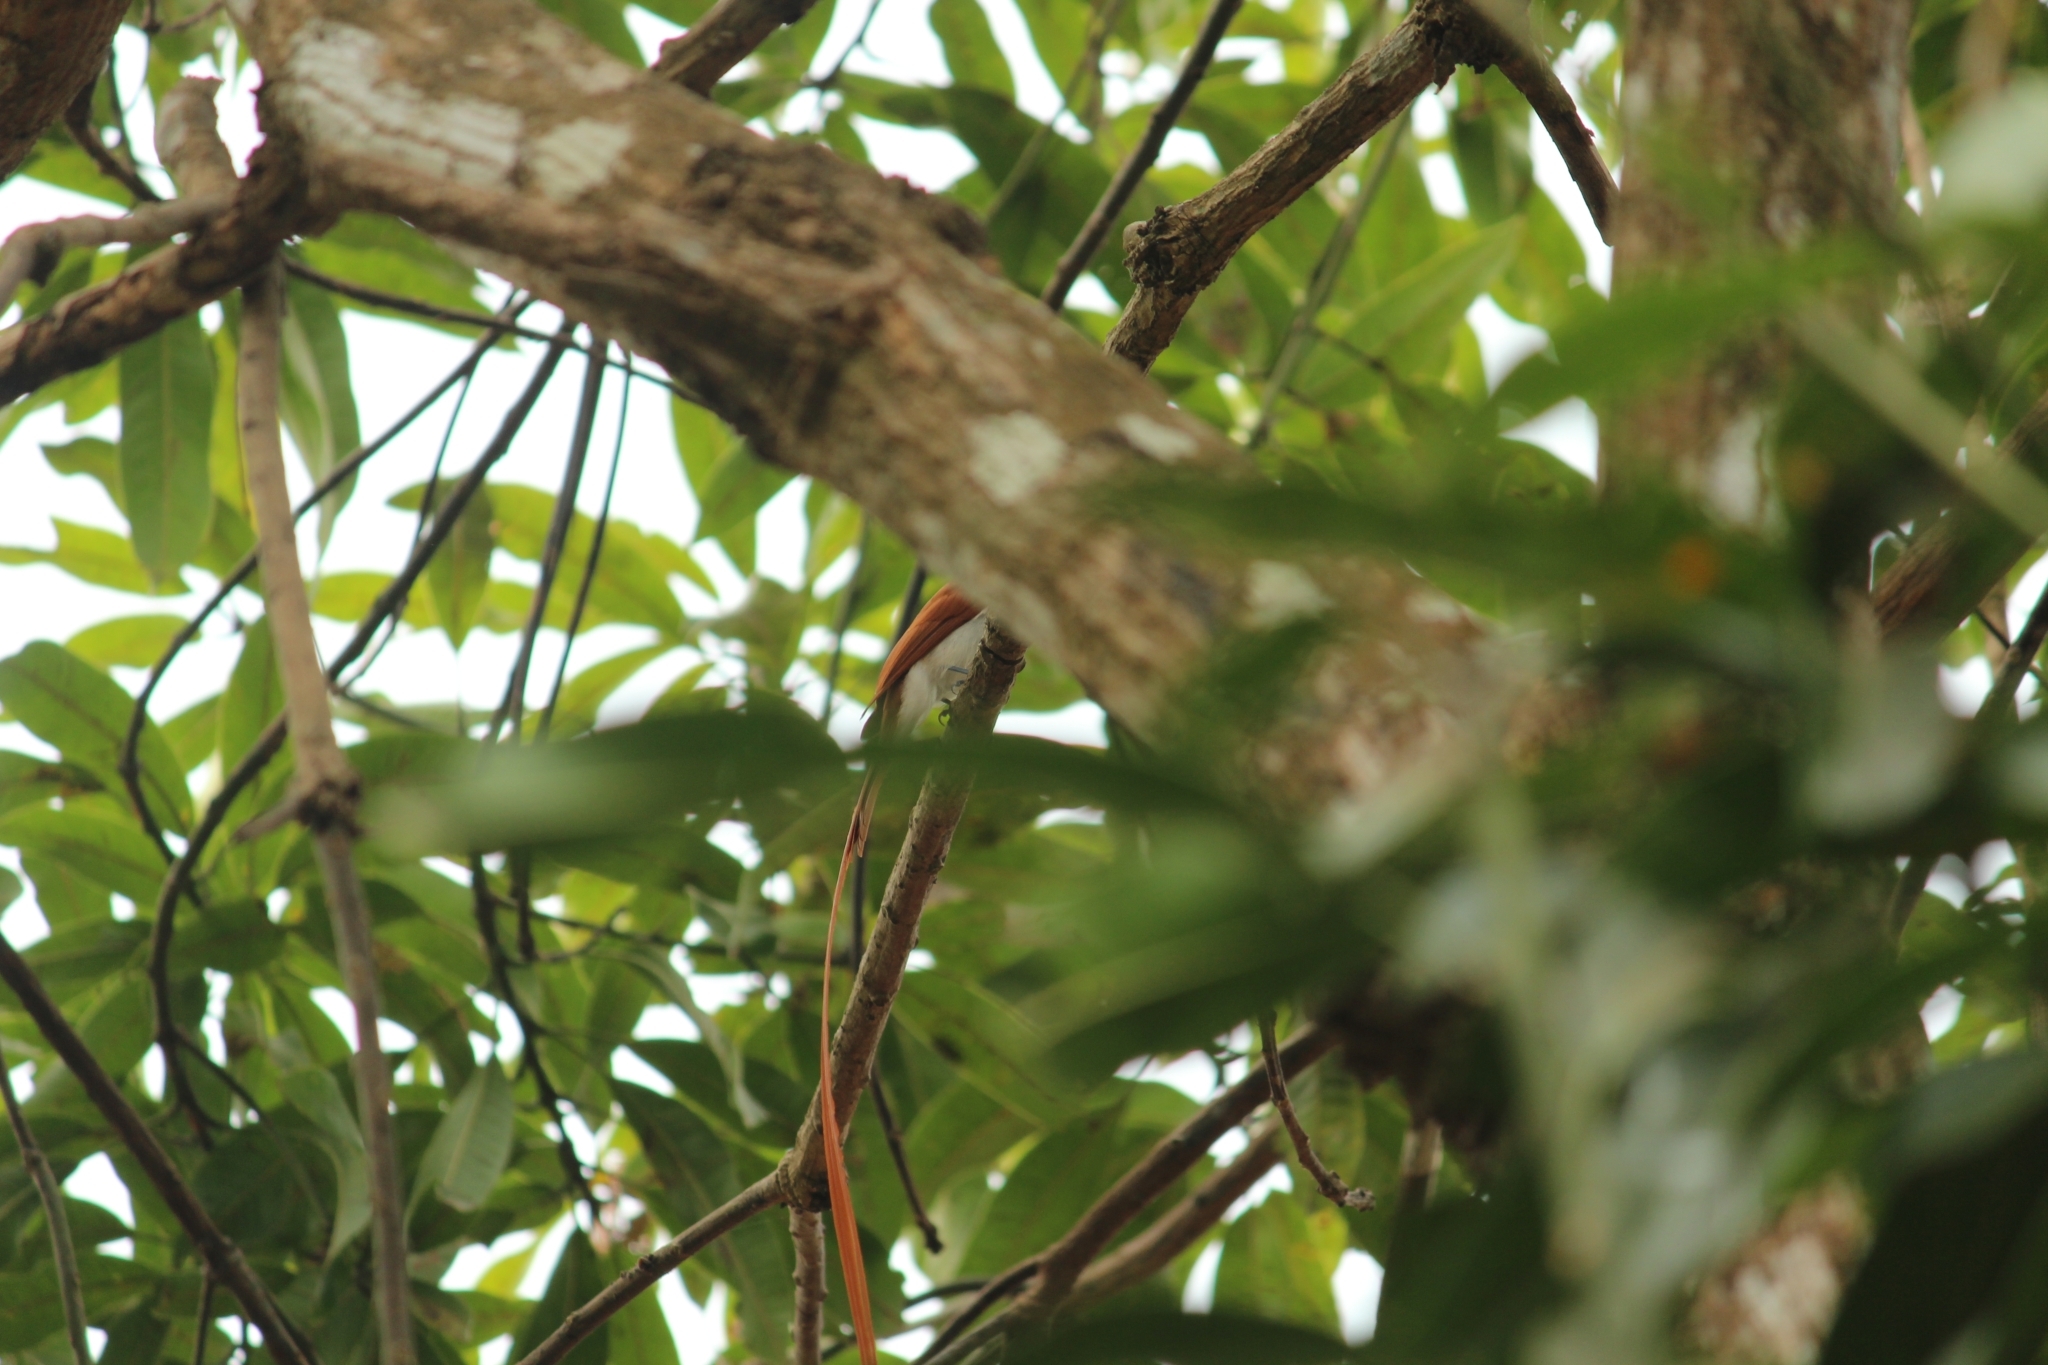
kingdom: Animalia
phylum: Chordata
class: Aves
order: Passeriformes
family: Monarchidae
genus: Terpsiphone
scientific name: Terpsiphone paradisi
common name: Indian paradise flycatcher
